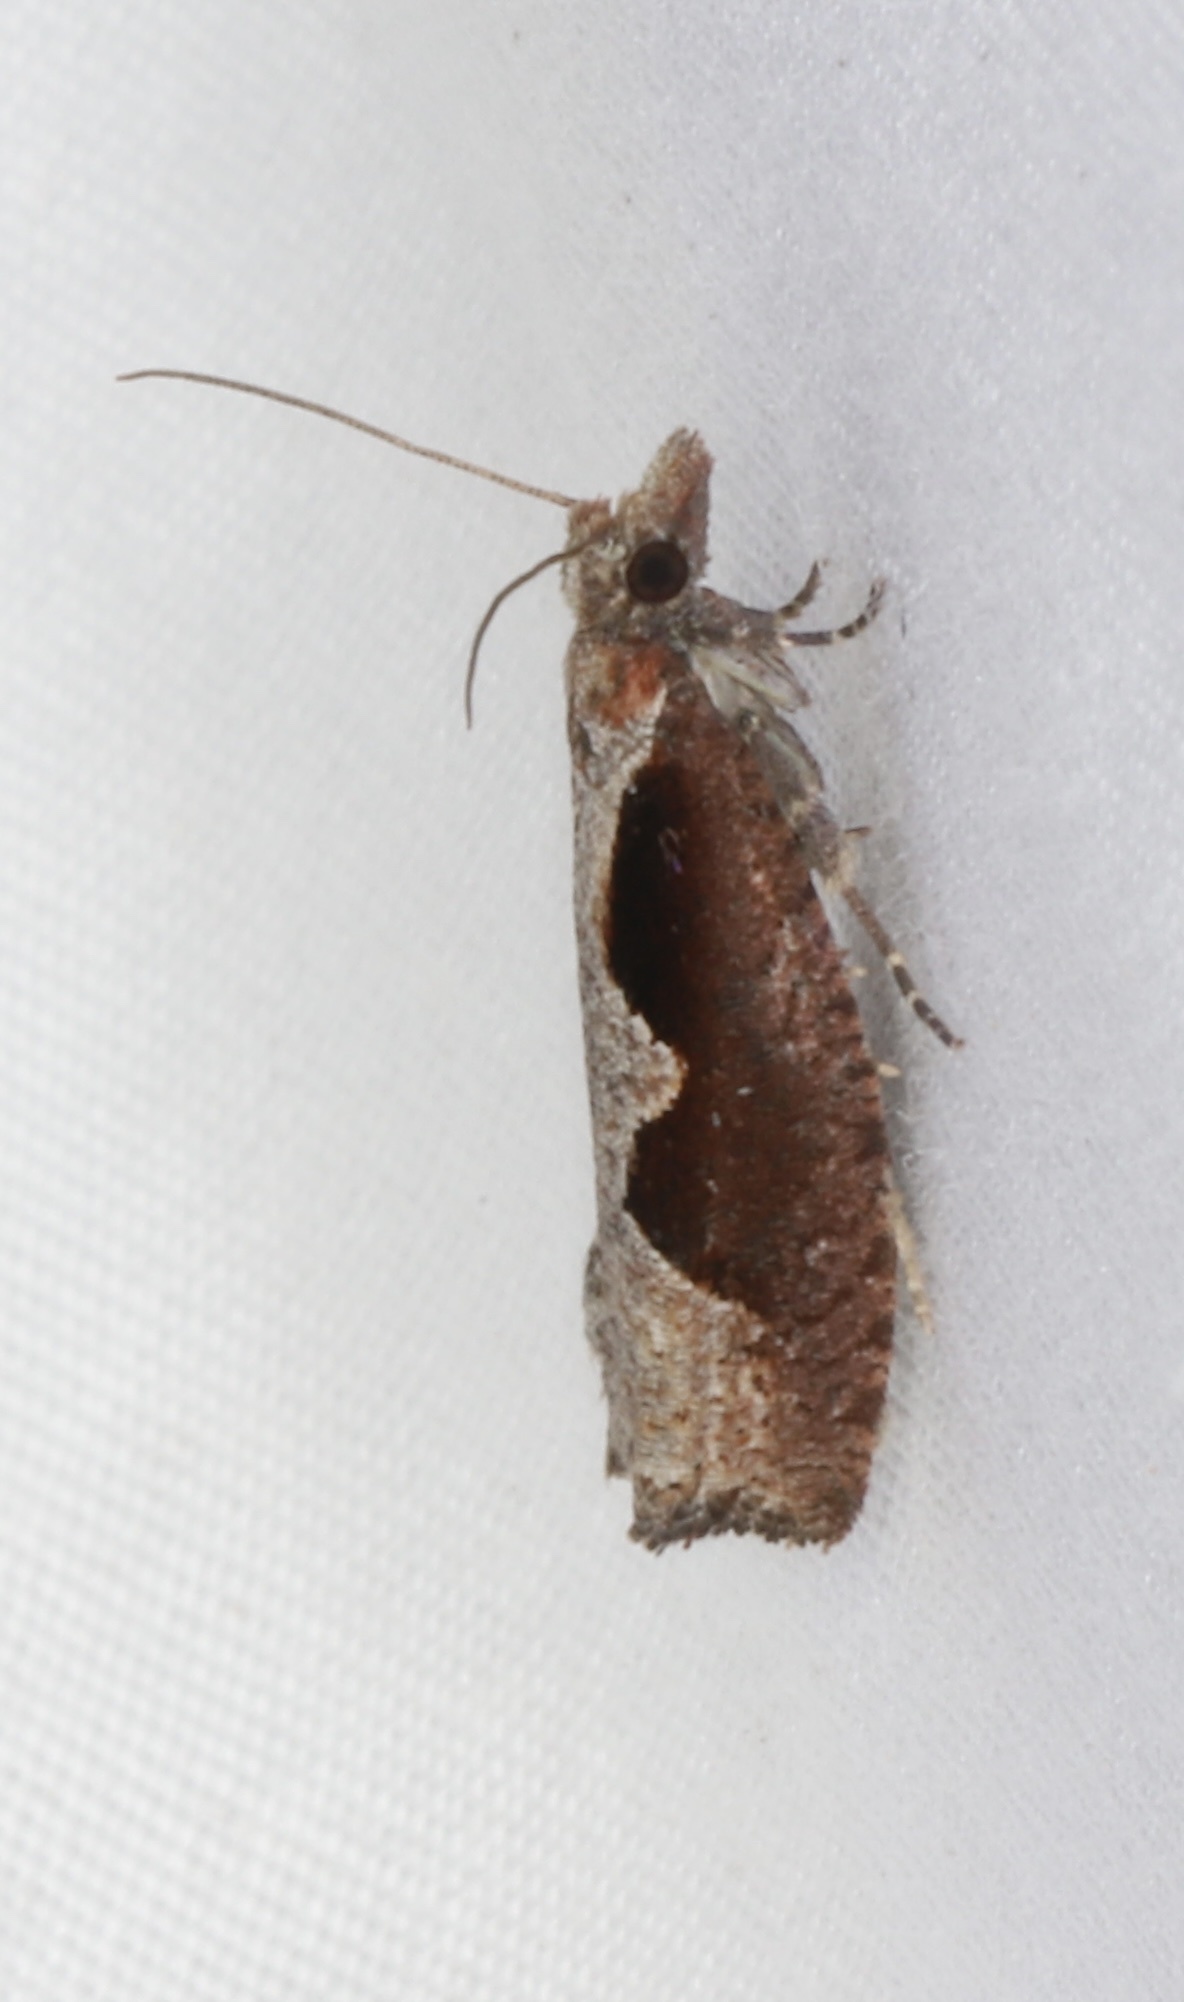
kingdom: Animalia
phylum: Arthropoda
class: Insecta
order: Lepidoptera
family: Tortricidae
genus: Epinotia
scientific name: Epinotia lindana
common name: Diamondback epinotia moth
